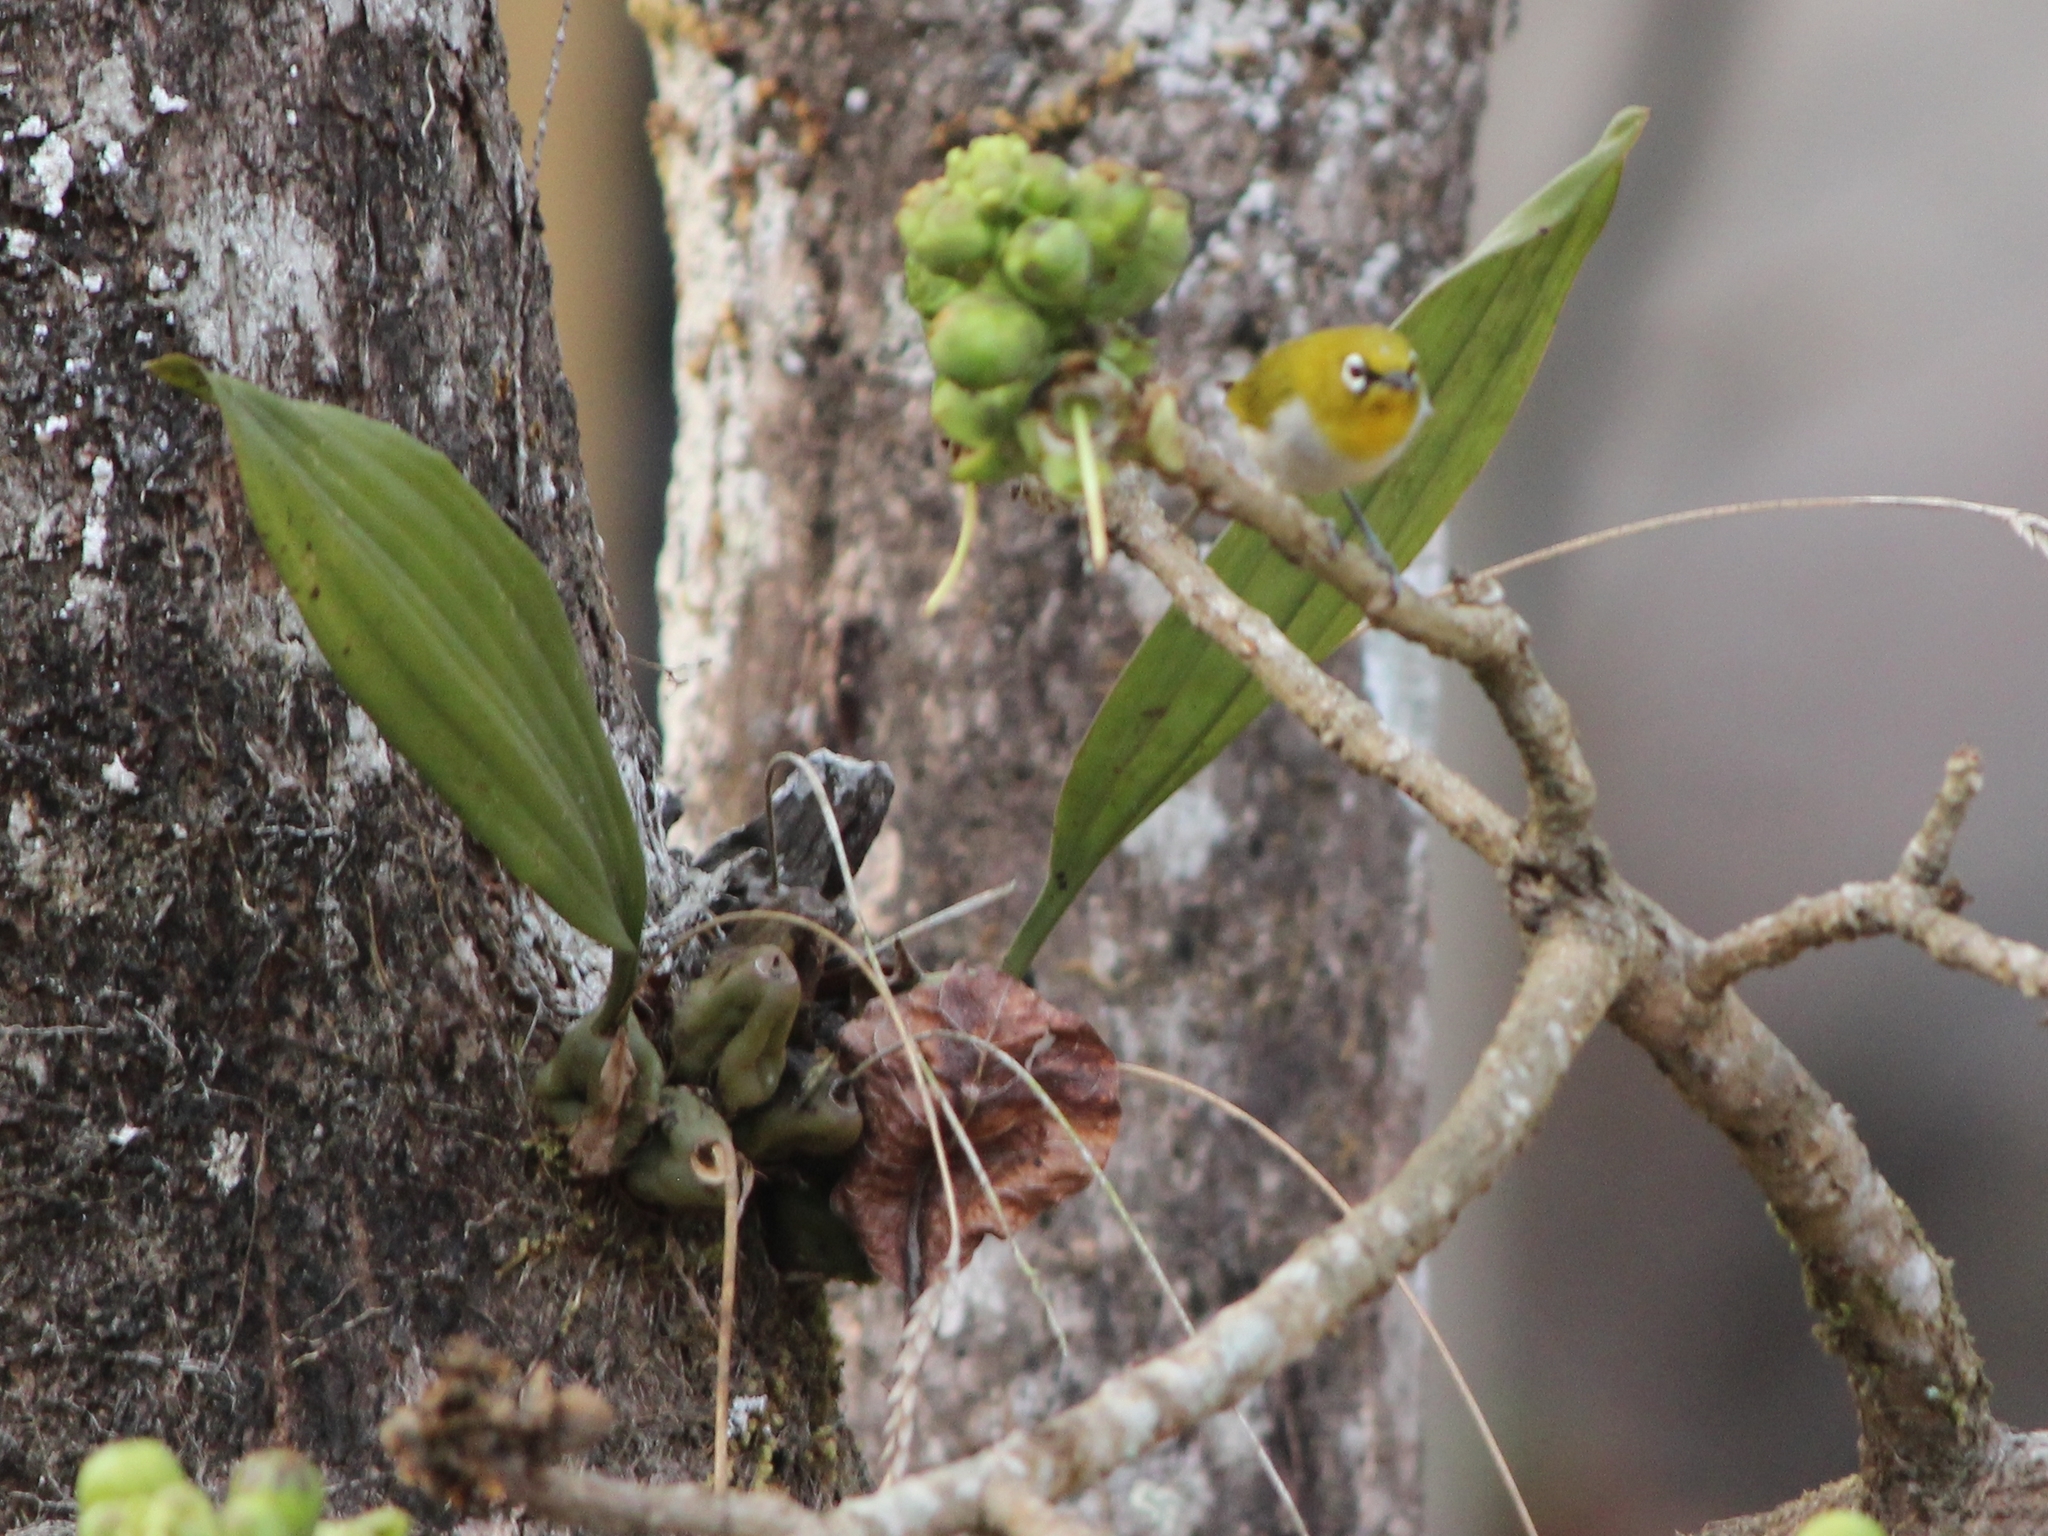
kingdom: Plantae
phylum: Tracheophyta
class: Liliopsida
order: Asparagales
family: Orchidaceae
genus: Coelogyne
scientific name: Coelogyne pallida
